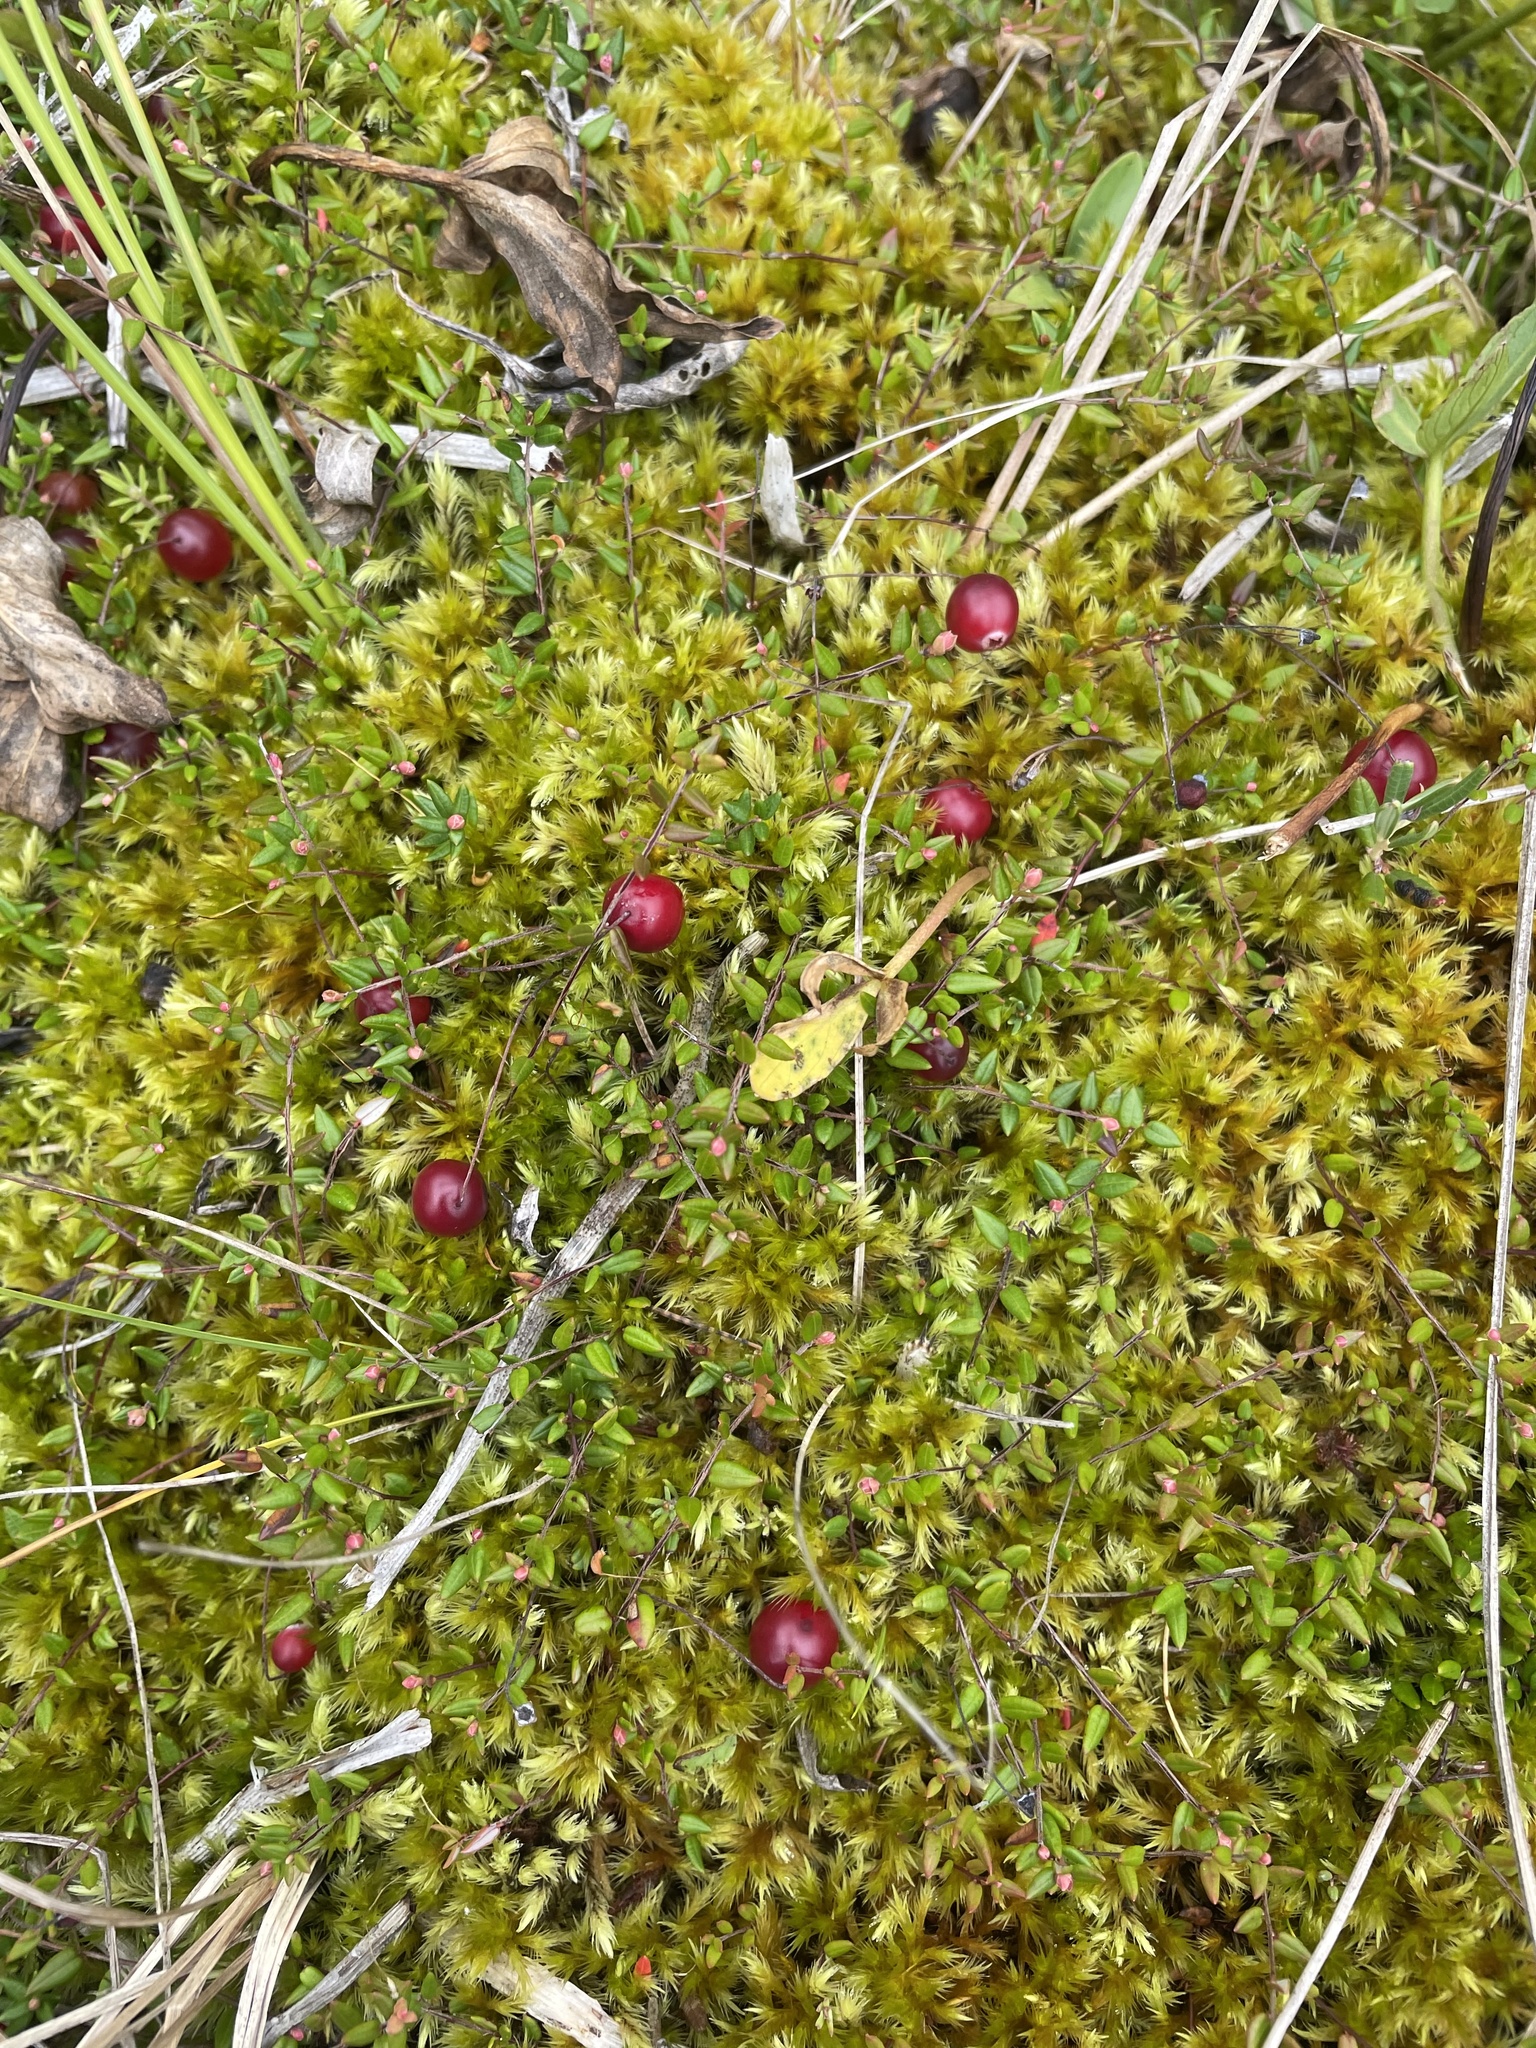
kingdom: Plantae
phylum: Tracheophyta
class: Magnoliopsida
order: Ericales
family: Ericaceae
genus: Vaccinium
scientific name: Vaccinium oxycoccos
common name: Cranberry
